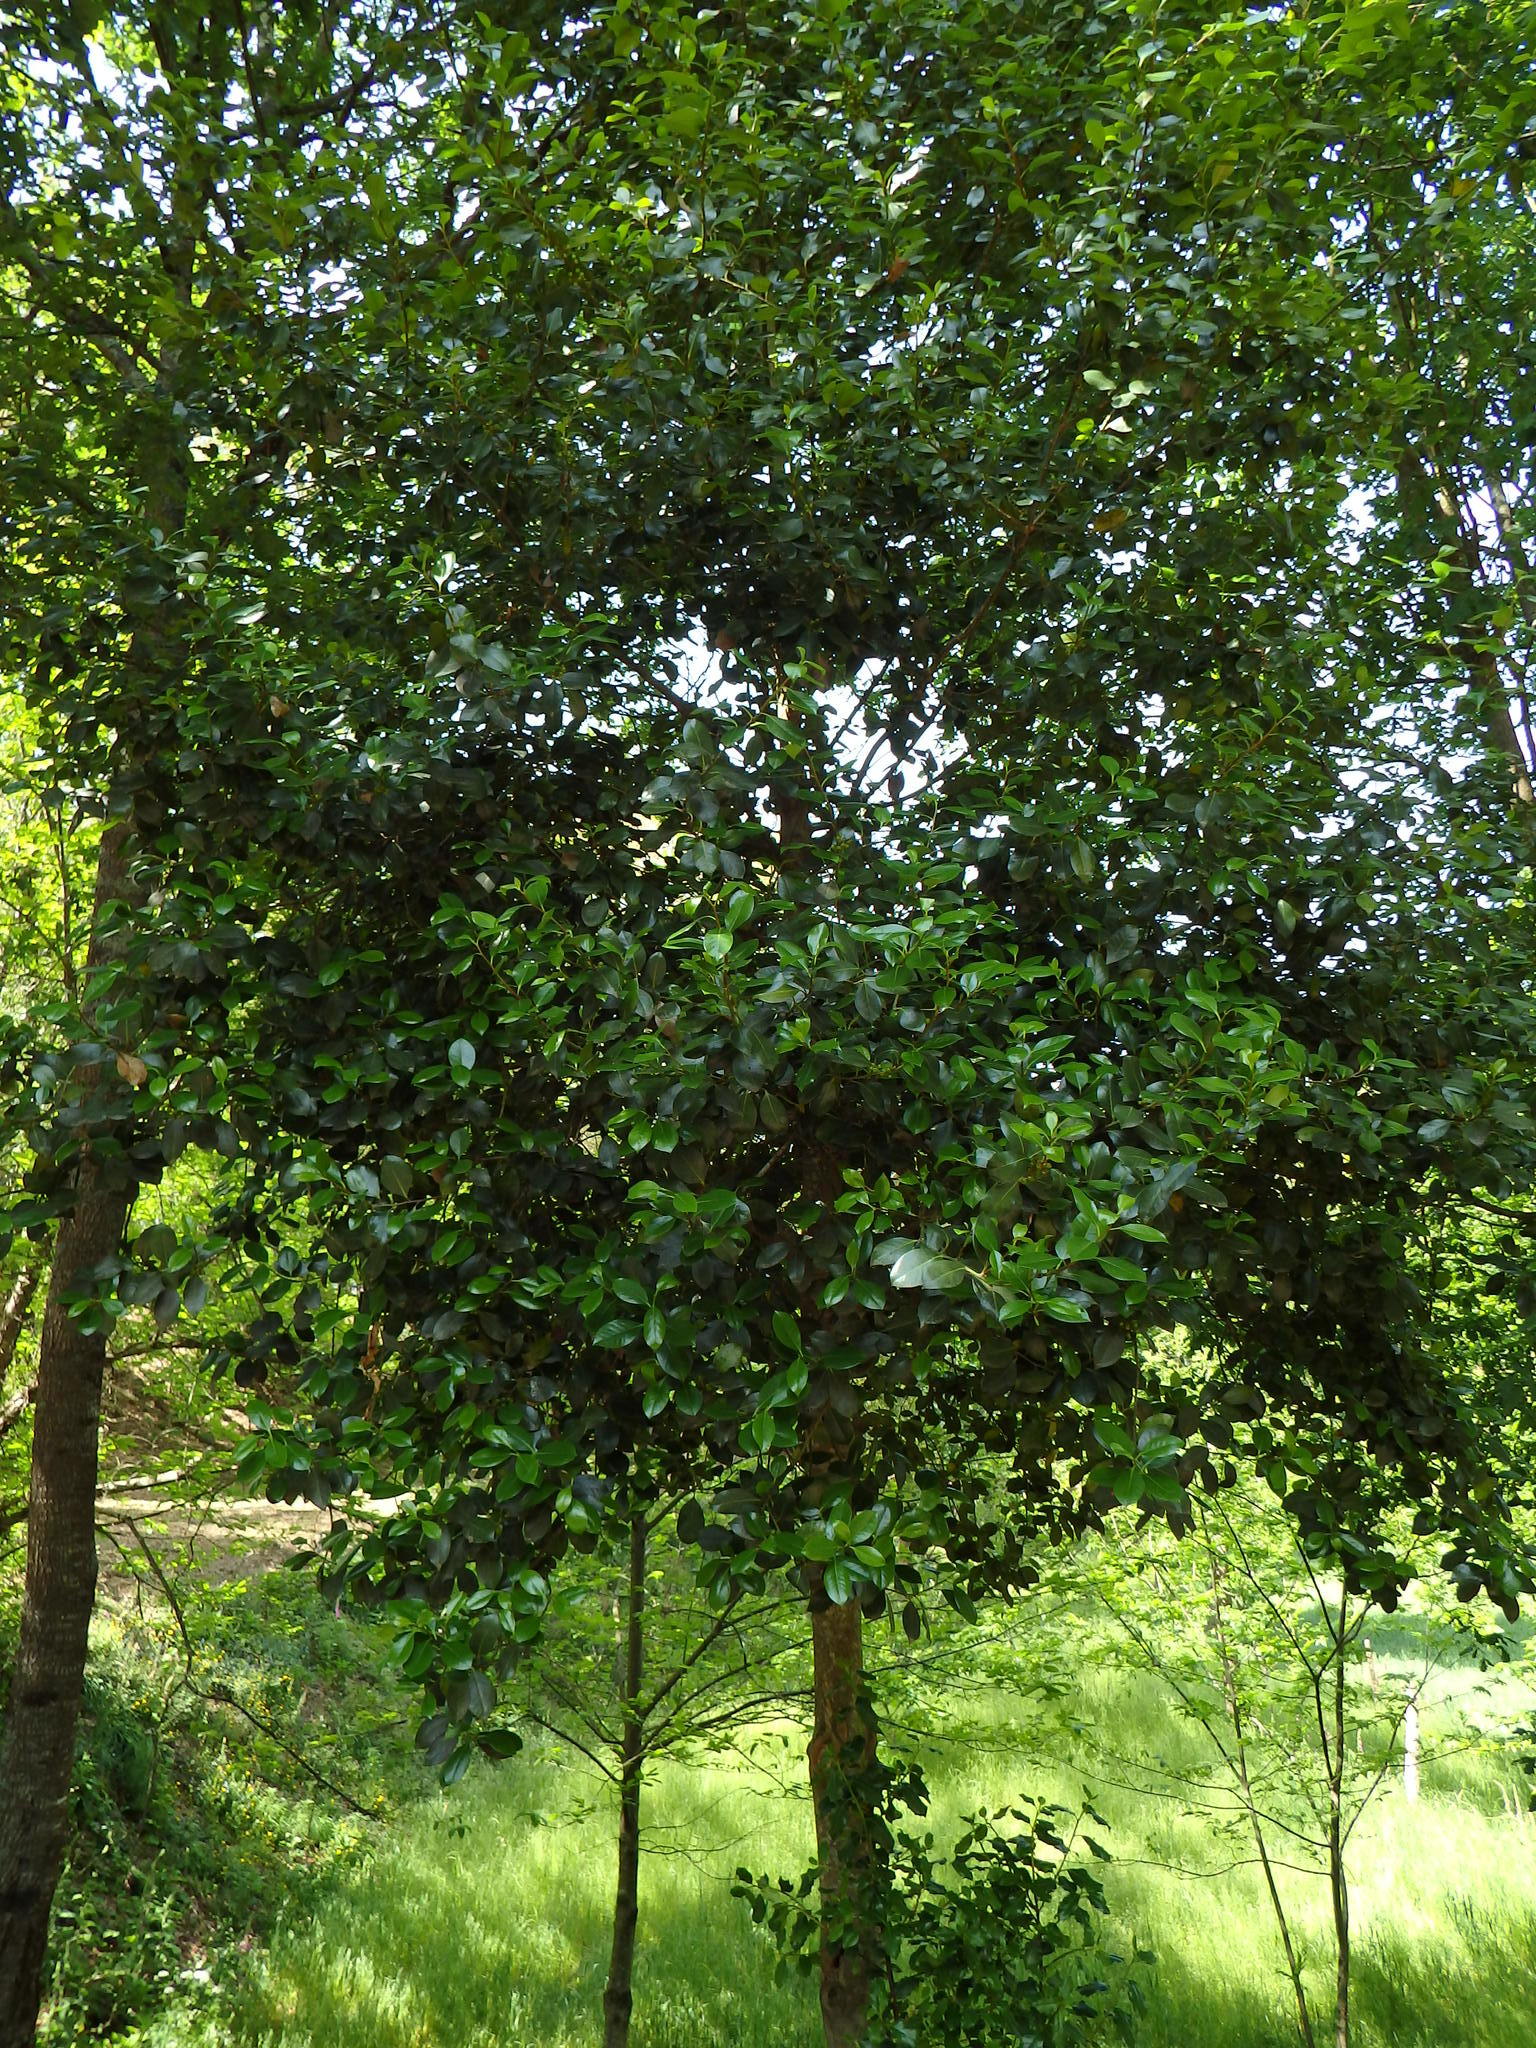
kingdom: Plantae
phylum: Tracheophyta
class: Magnoliopsida
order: Aquifoliales
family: Aquifoliaceae
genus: Ilex
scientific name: Ilex aquifolium
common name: English holly
